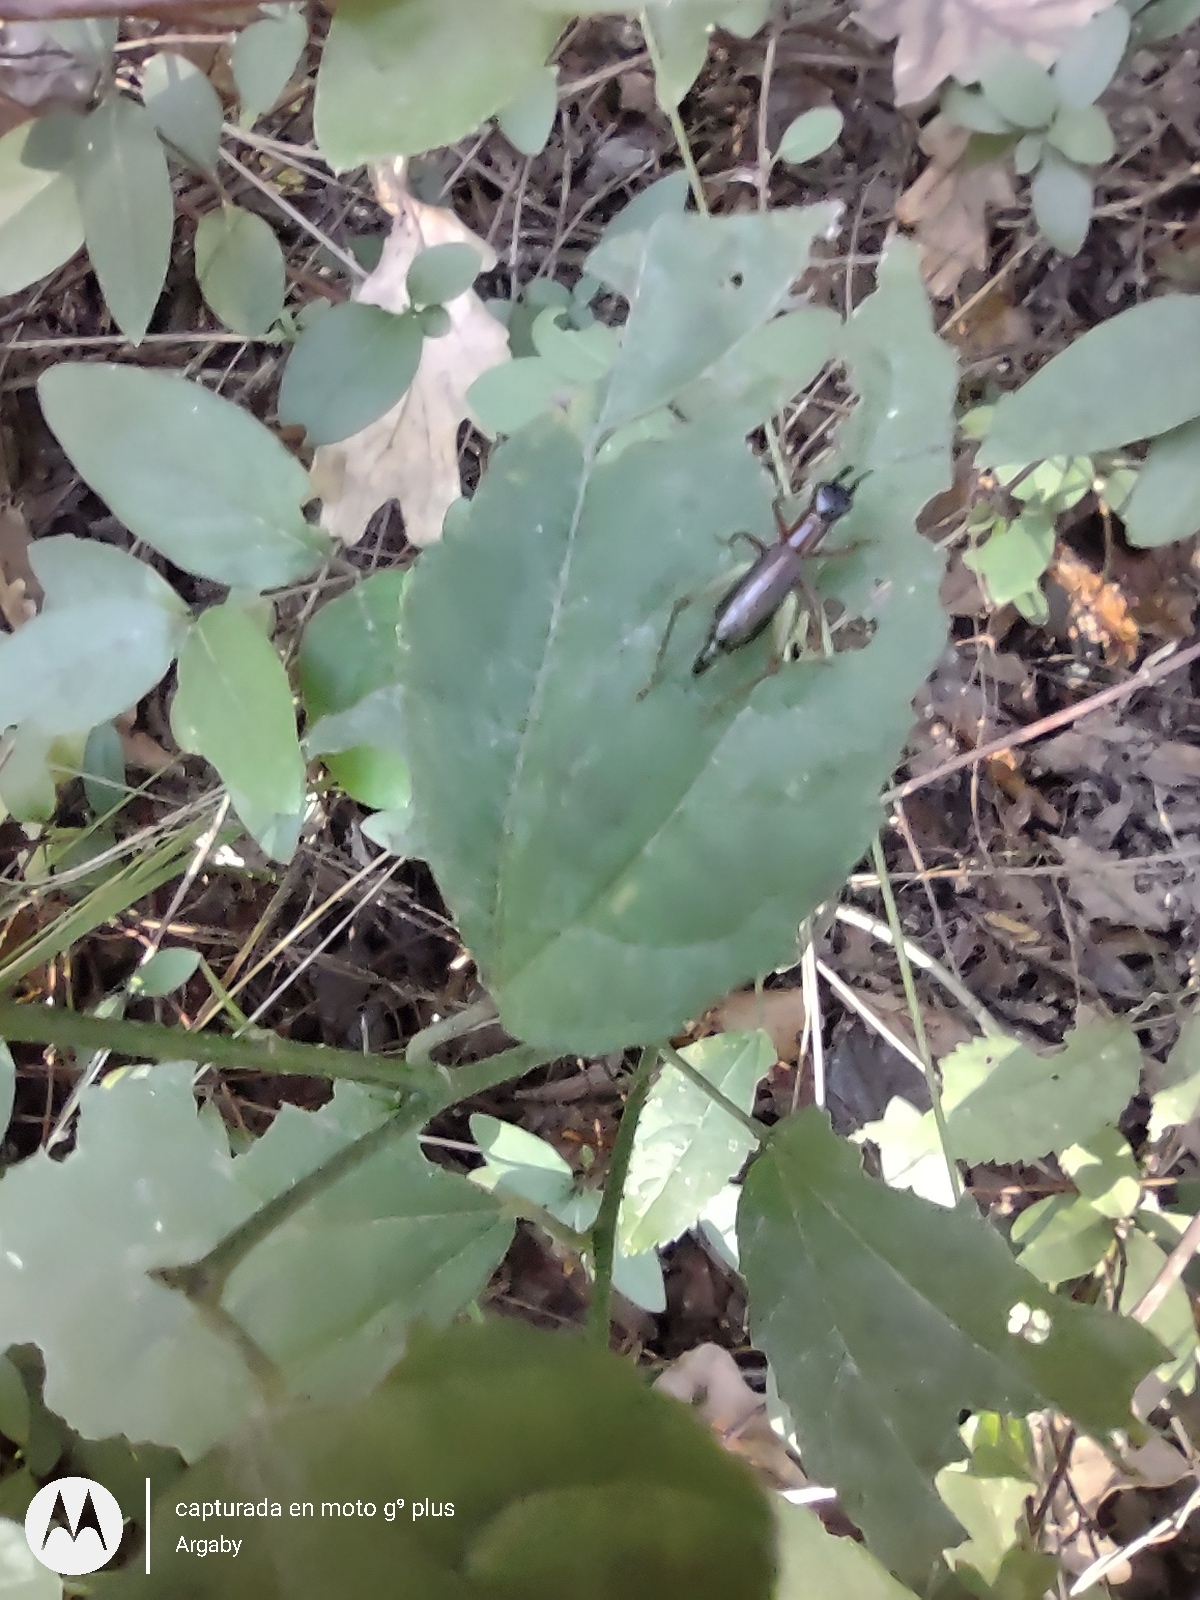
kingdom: Animalia
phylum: Arthropoda
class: Insecta
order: Orthoptera
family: Trigonidiidae
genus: Cranistus
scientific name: Cranistus colliurides
